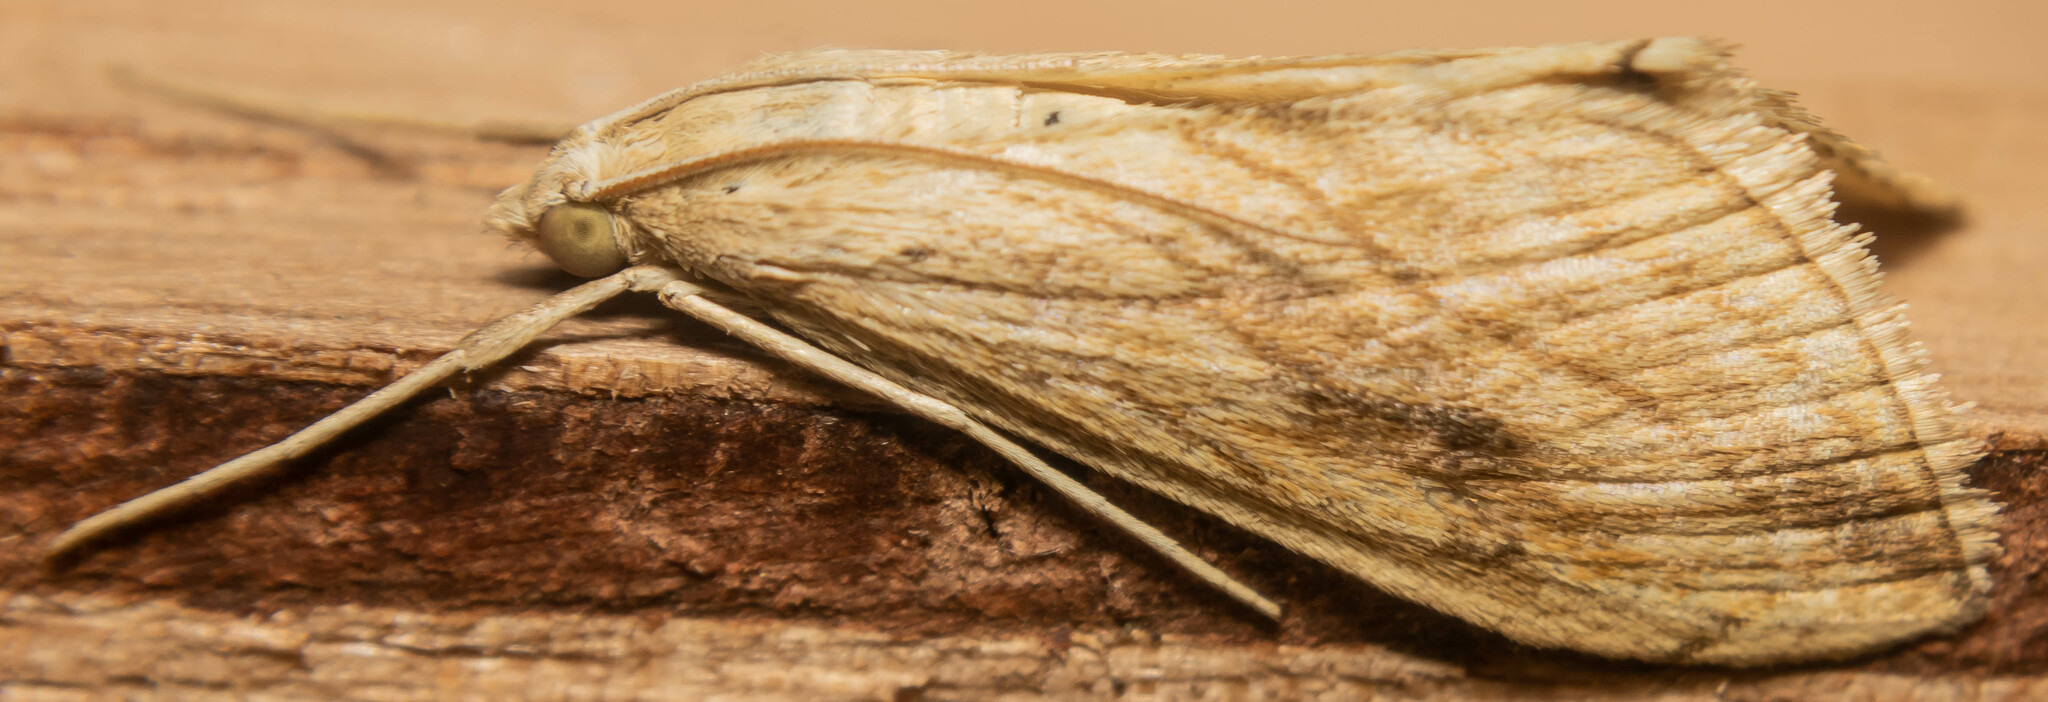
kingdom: Animalia
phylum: Arthropoda
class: Insecta
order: Lepidoptera
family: Crambidae
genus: Evergestis
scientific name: Evergestis forficalis
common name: Garden pebble
